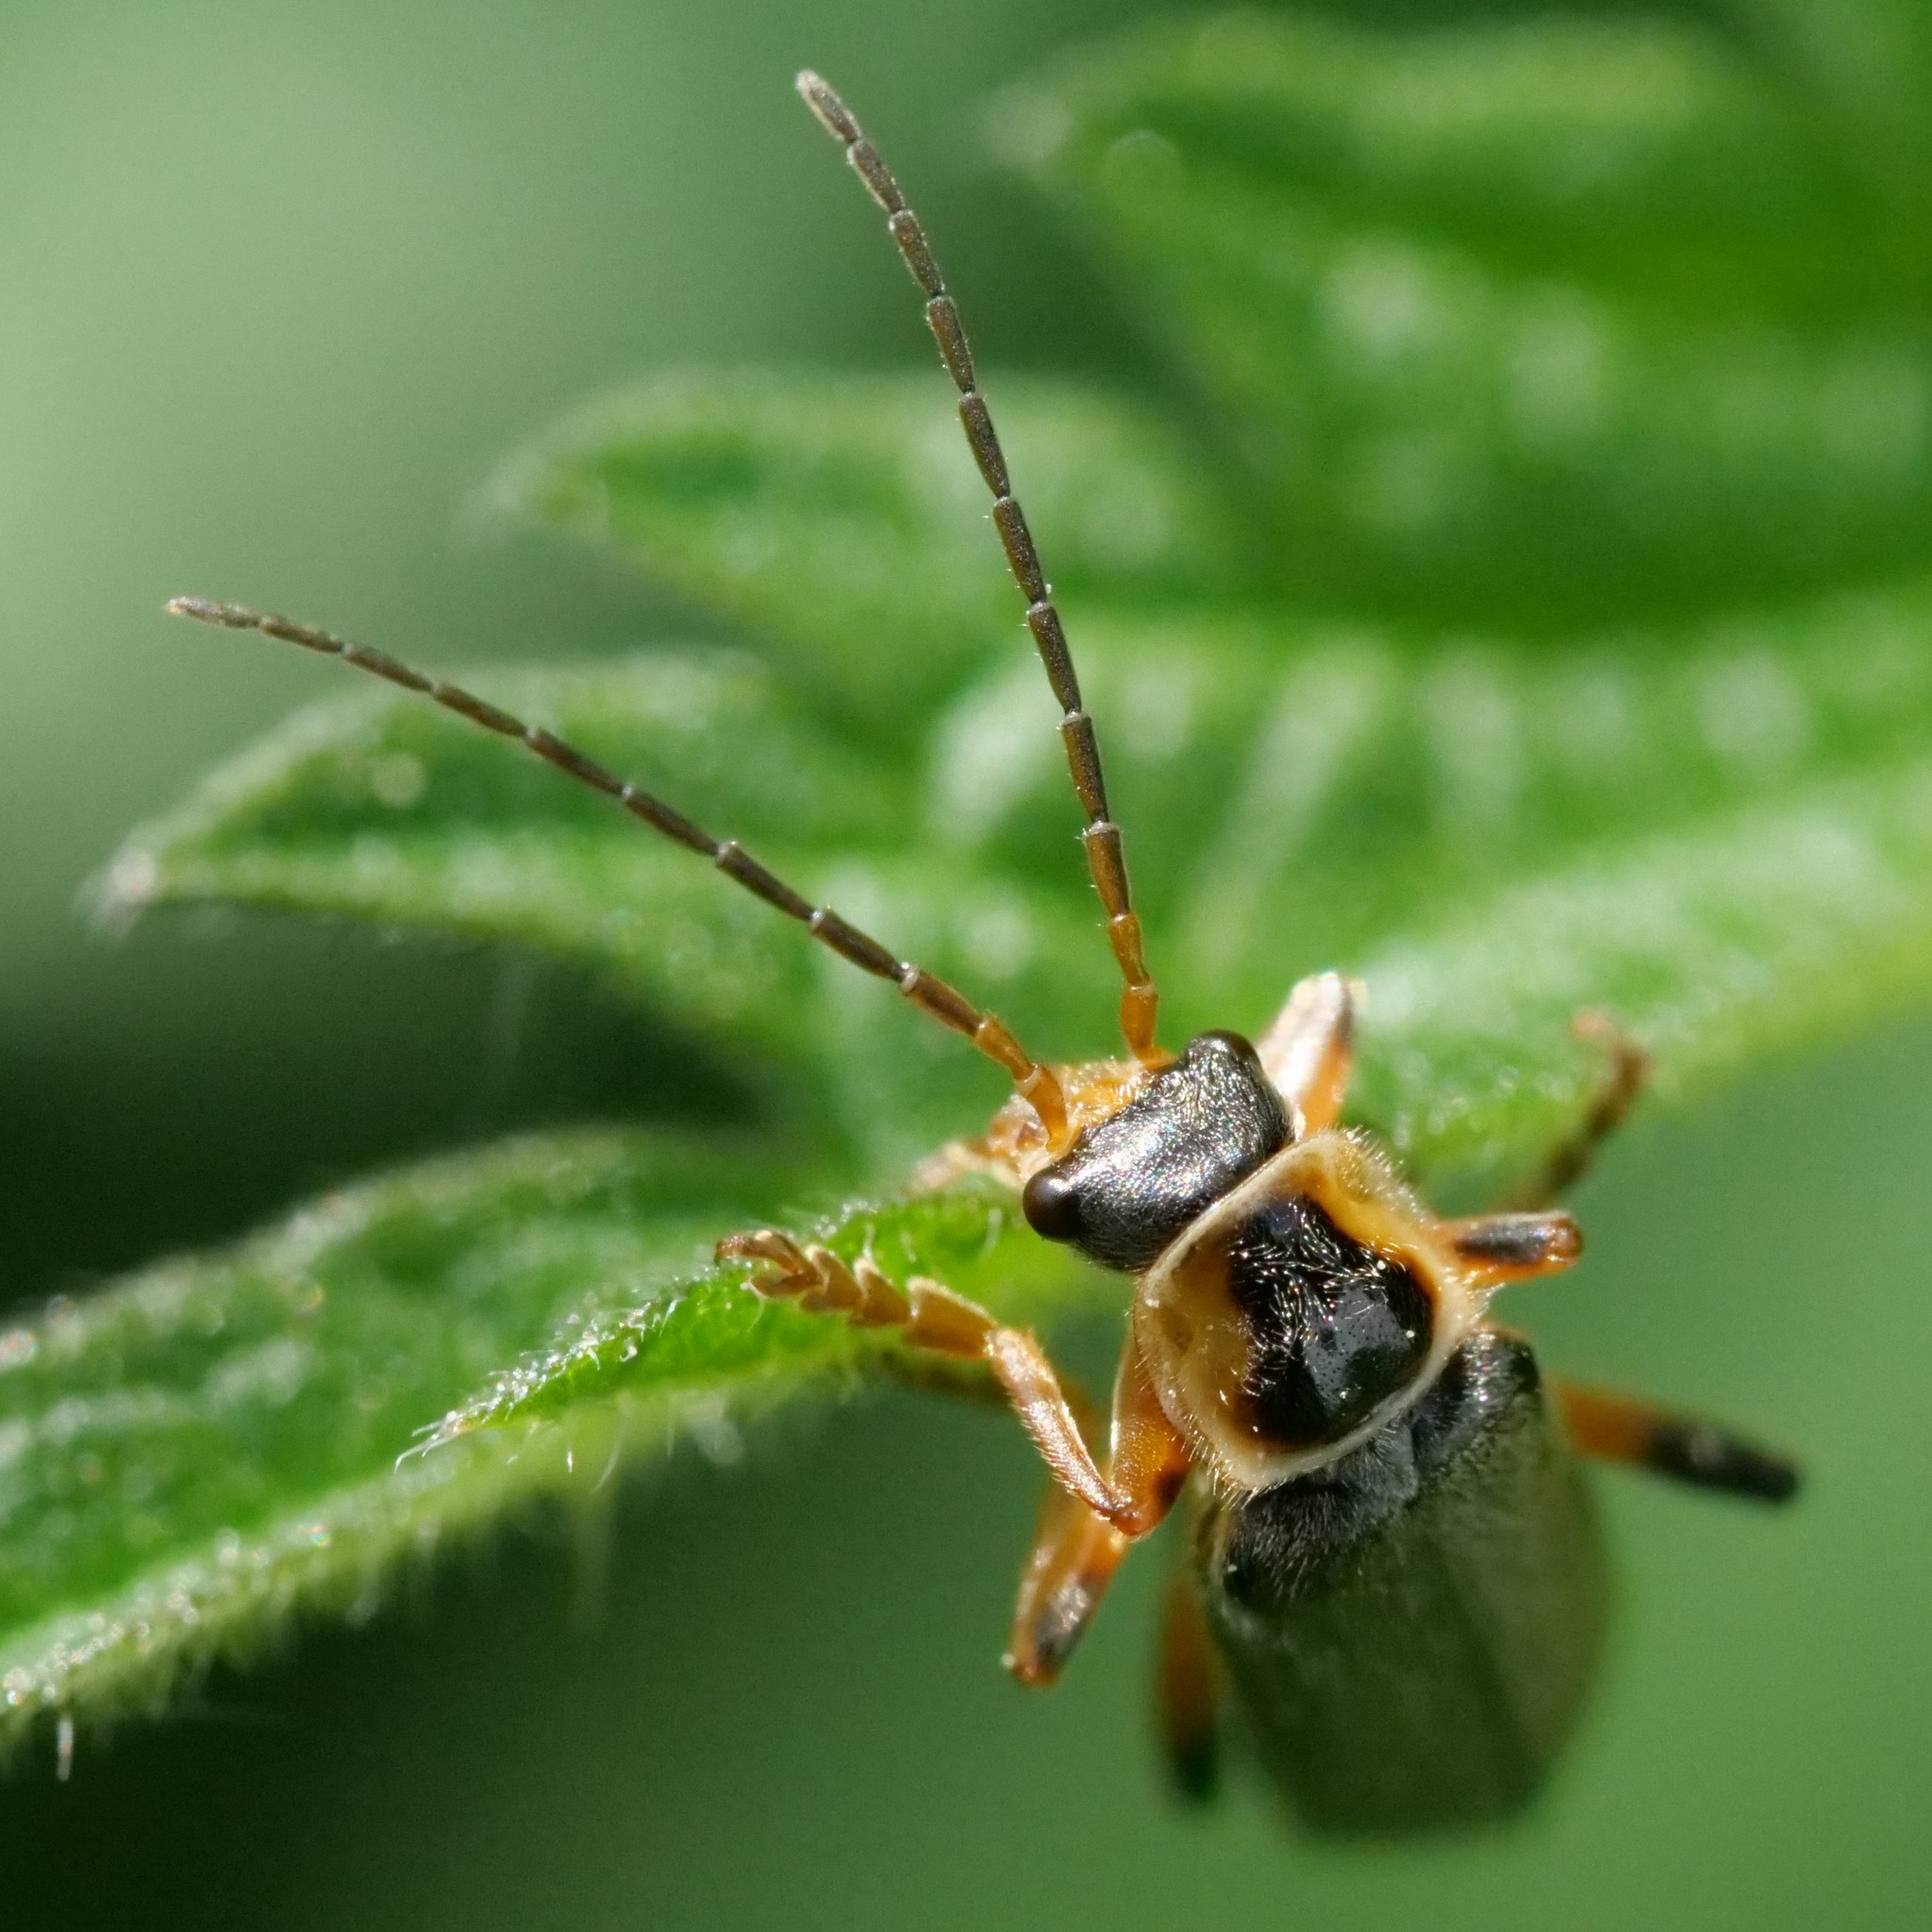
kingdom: Animalia
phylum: Arthropoda
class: Insecta
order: Coleoptera
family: Cantharidae
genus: Cantharis
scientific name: Cantharis nigricans
